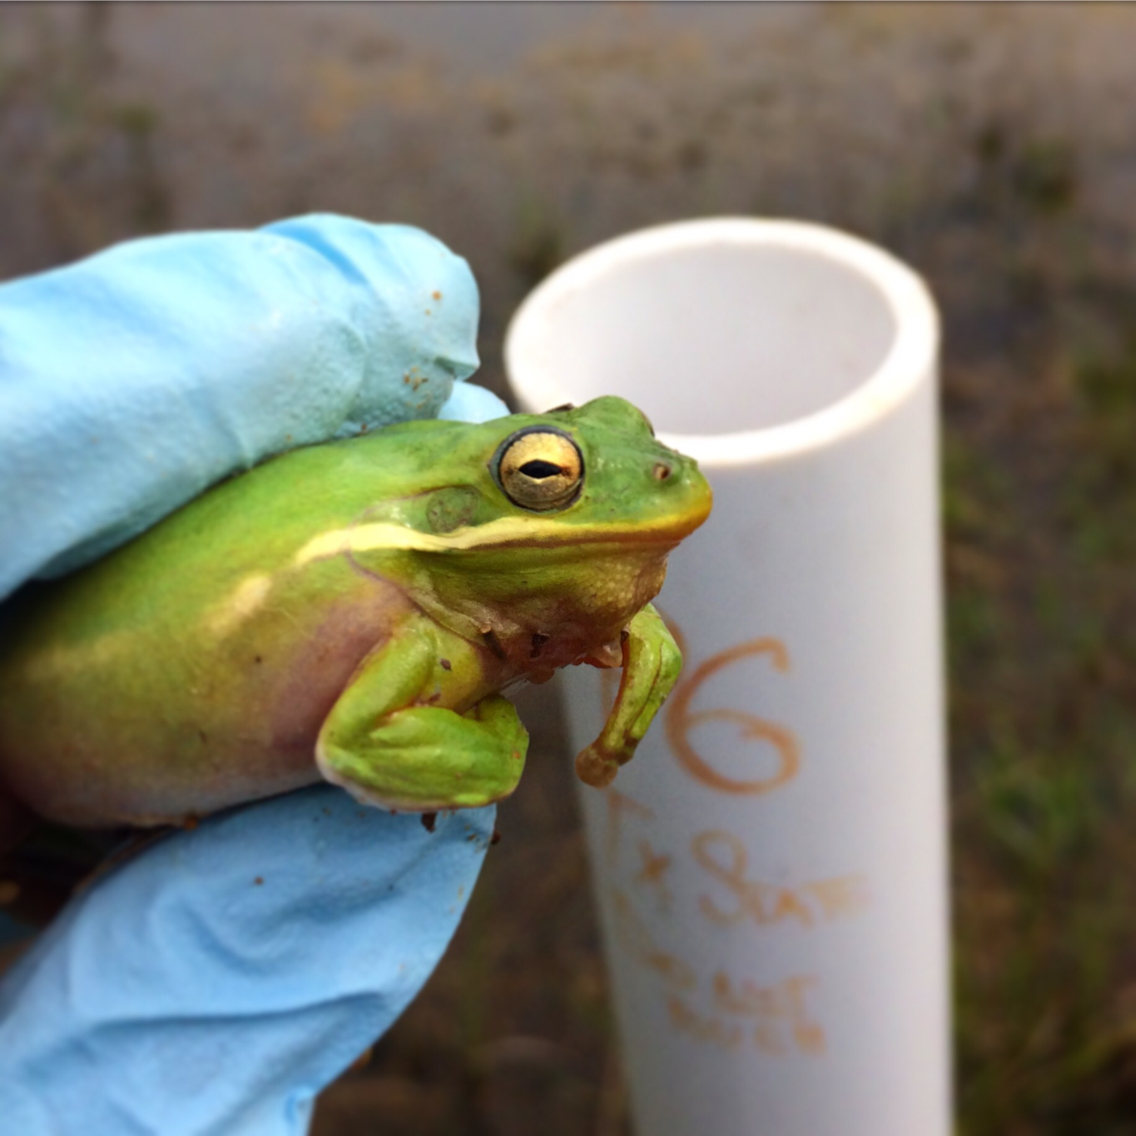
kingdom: Animalia
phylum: Chordata
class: Amphibia
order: Anura
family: Hylidae
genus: Dryophytes
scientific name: Dryophytes cinereus
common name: Green treefrog
